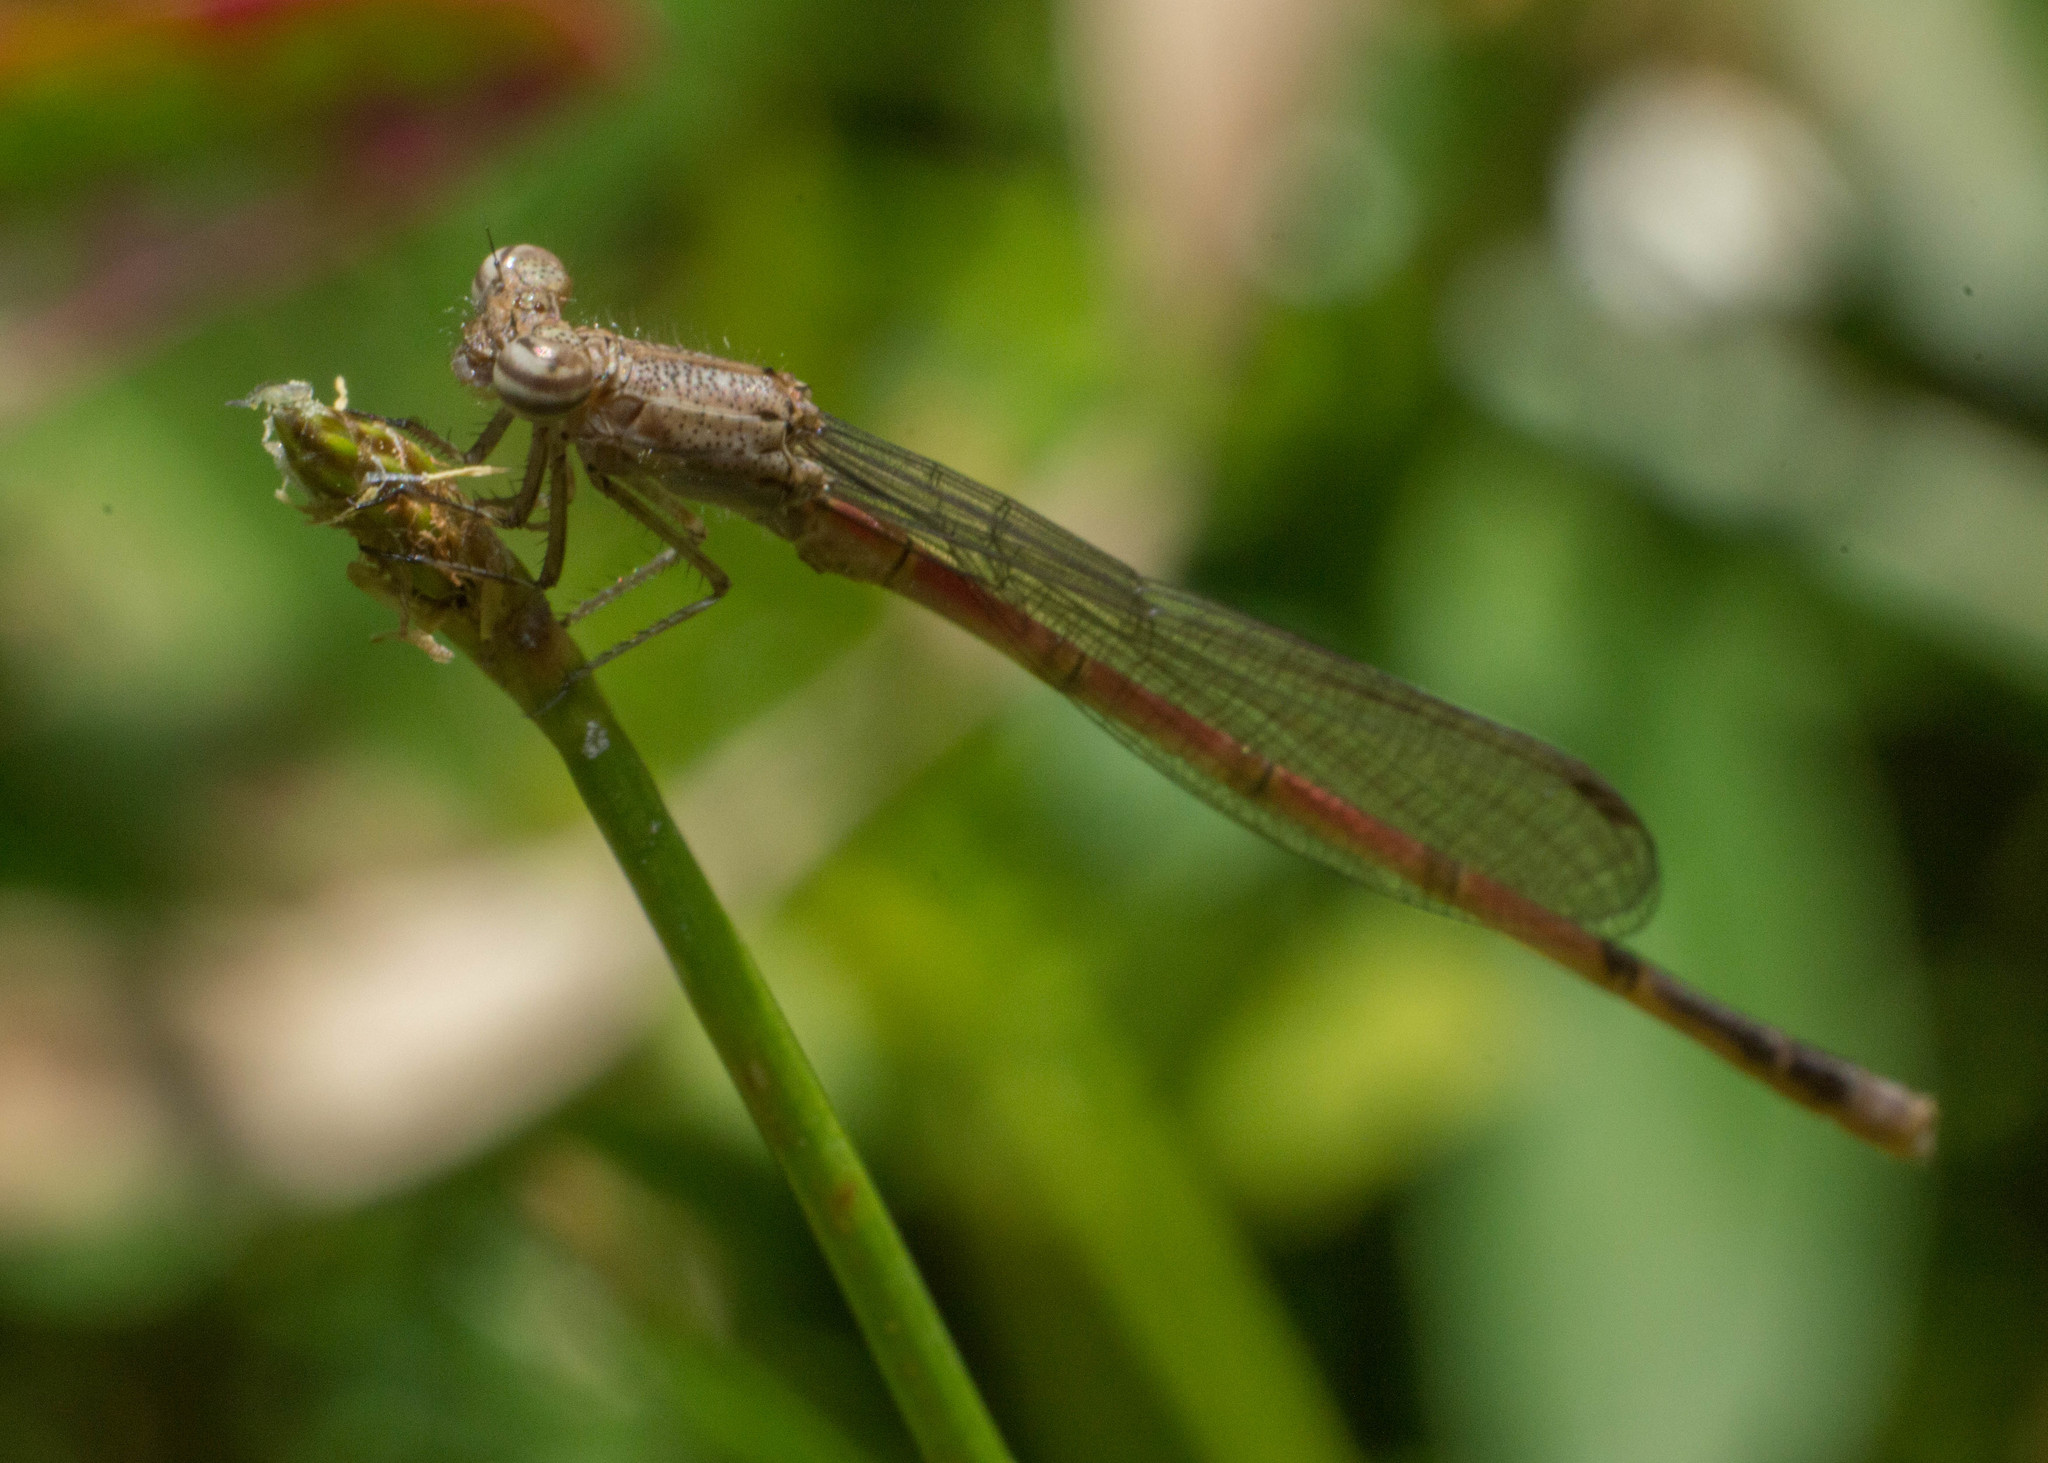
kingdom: Animalia
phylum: Arthropoda
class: Insecta
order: Odonata
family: Coenagrionidae
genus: Oxyagrion
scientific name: Oxyagrion terminale
